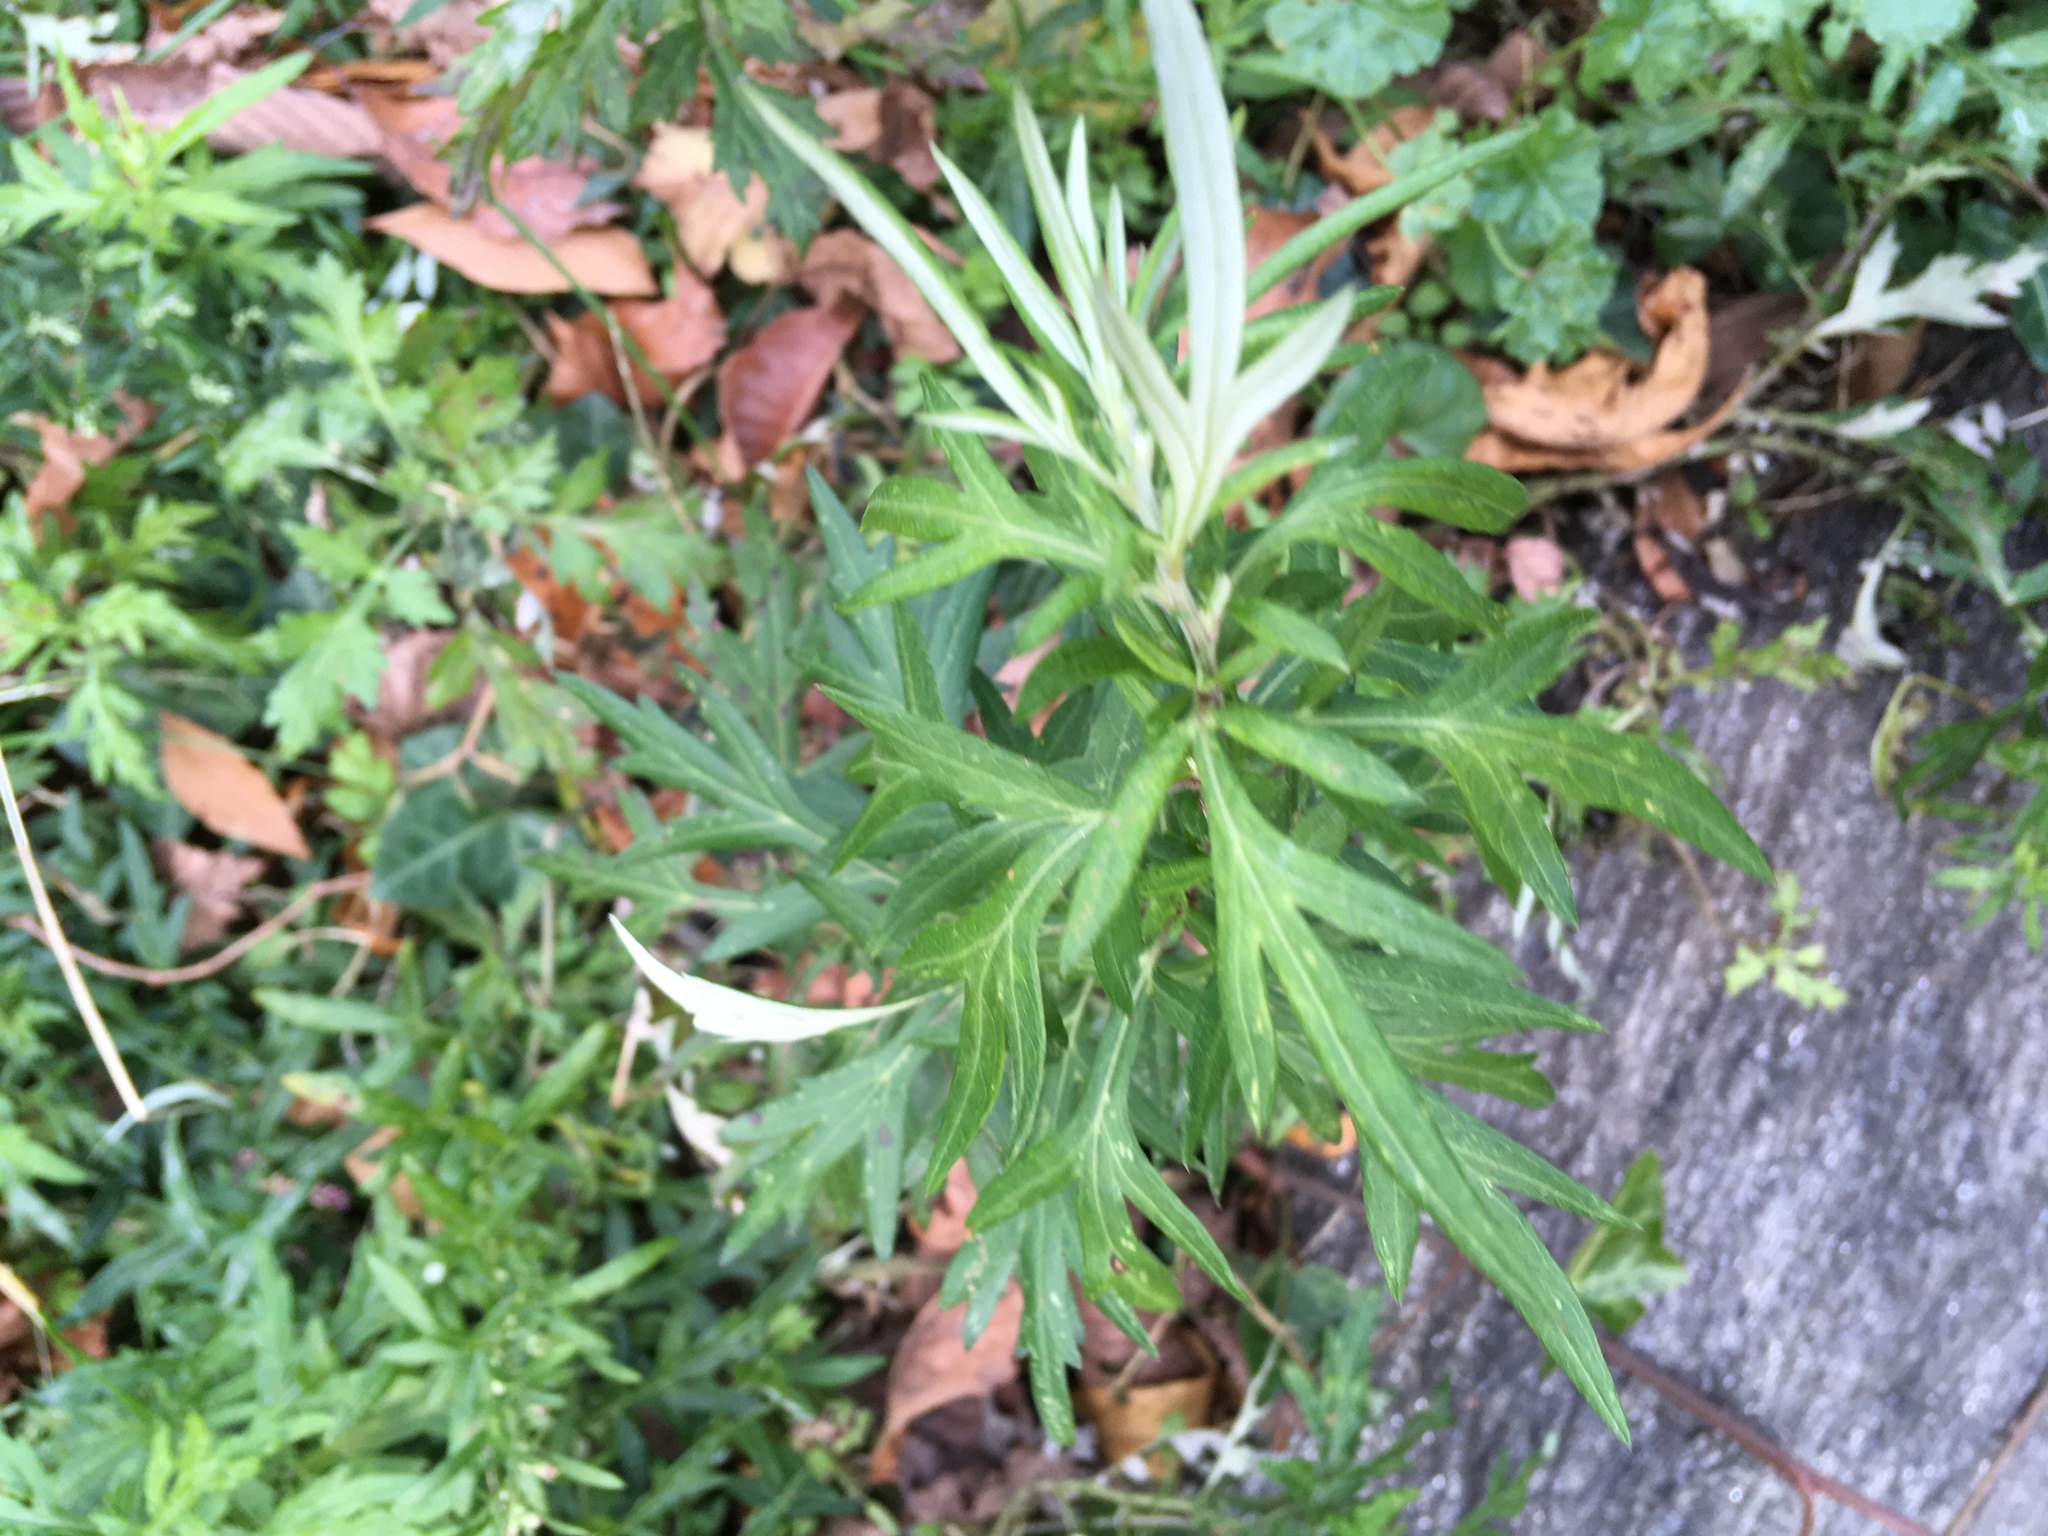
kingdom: Plantae
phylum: Tracheophyta
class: Magnoliopsida
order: Asterales
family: Asteraceae
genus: Artemisia
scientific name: Artemisia vulgaris
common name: Mugwort
